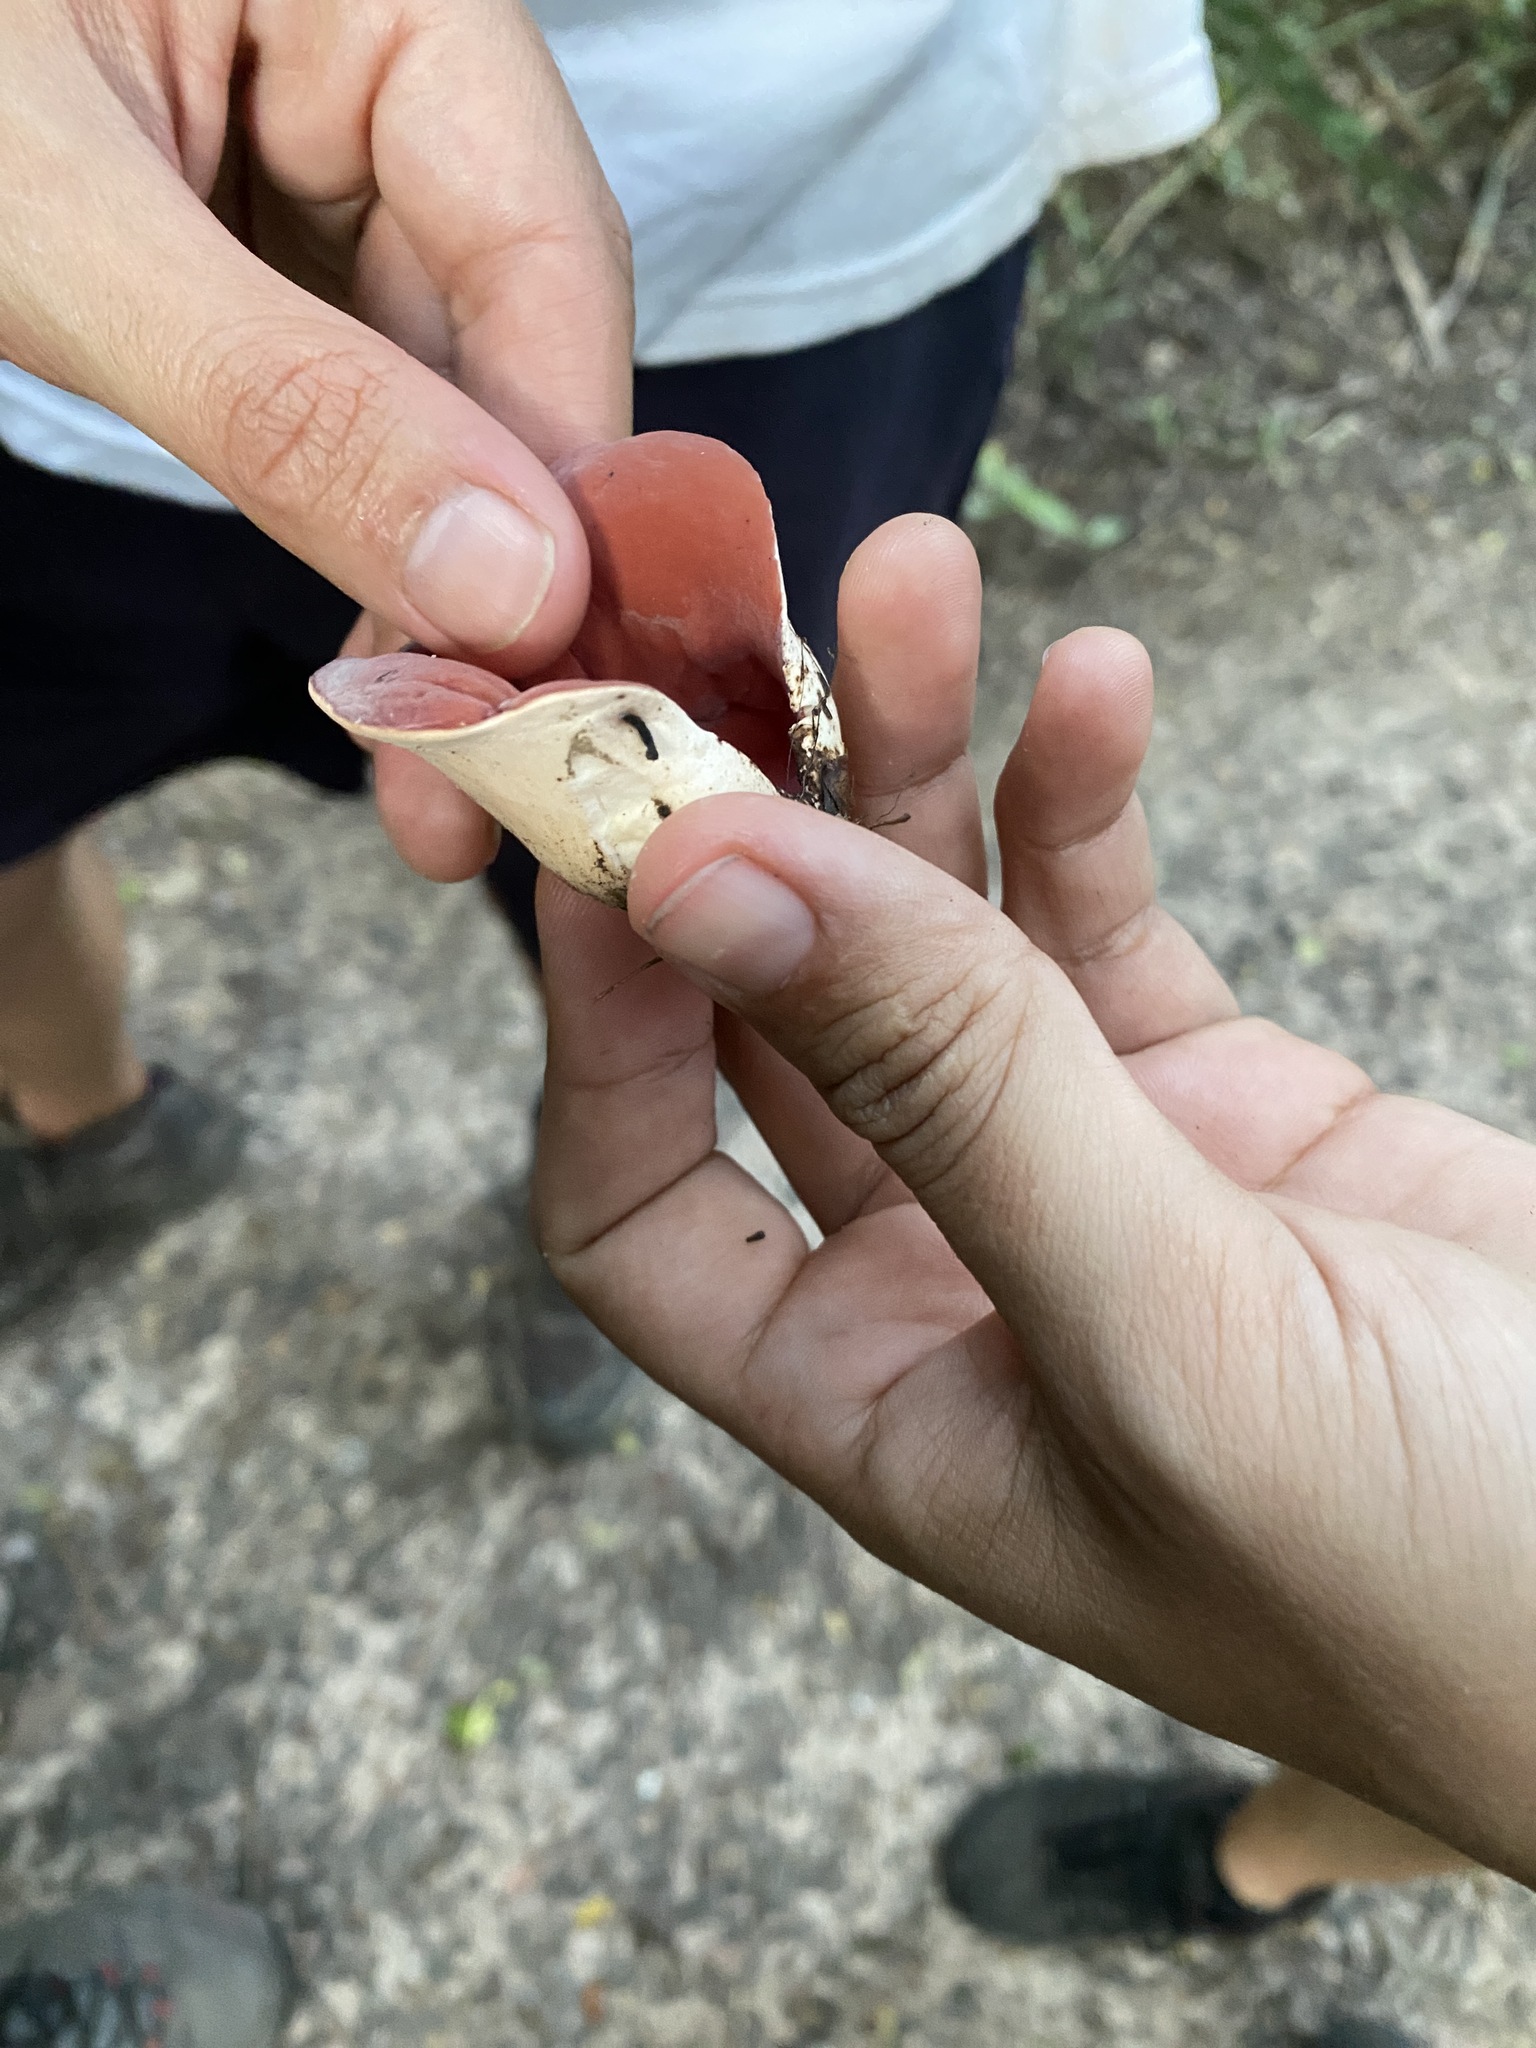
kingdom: Fungi
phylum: Ascomycota
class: Pezizomycetes
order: Pezizales
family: Sarcoscyphaceae
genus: Phillipsia
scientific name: Phillipsia domingensis
